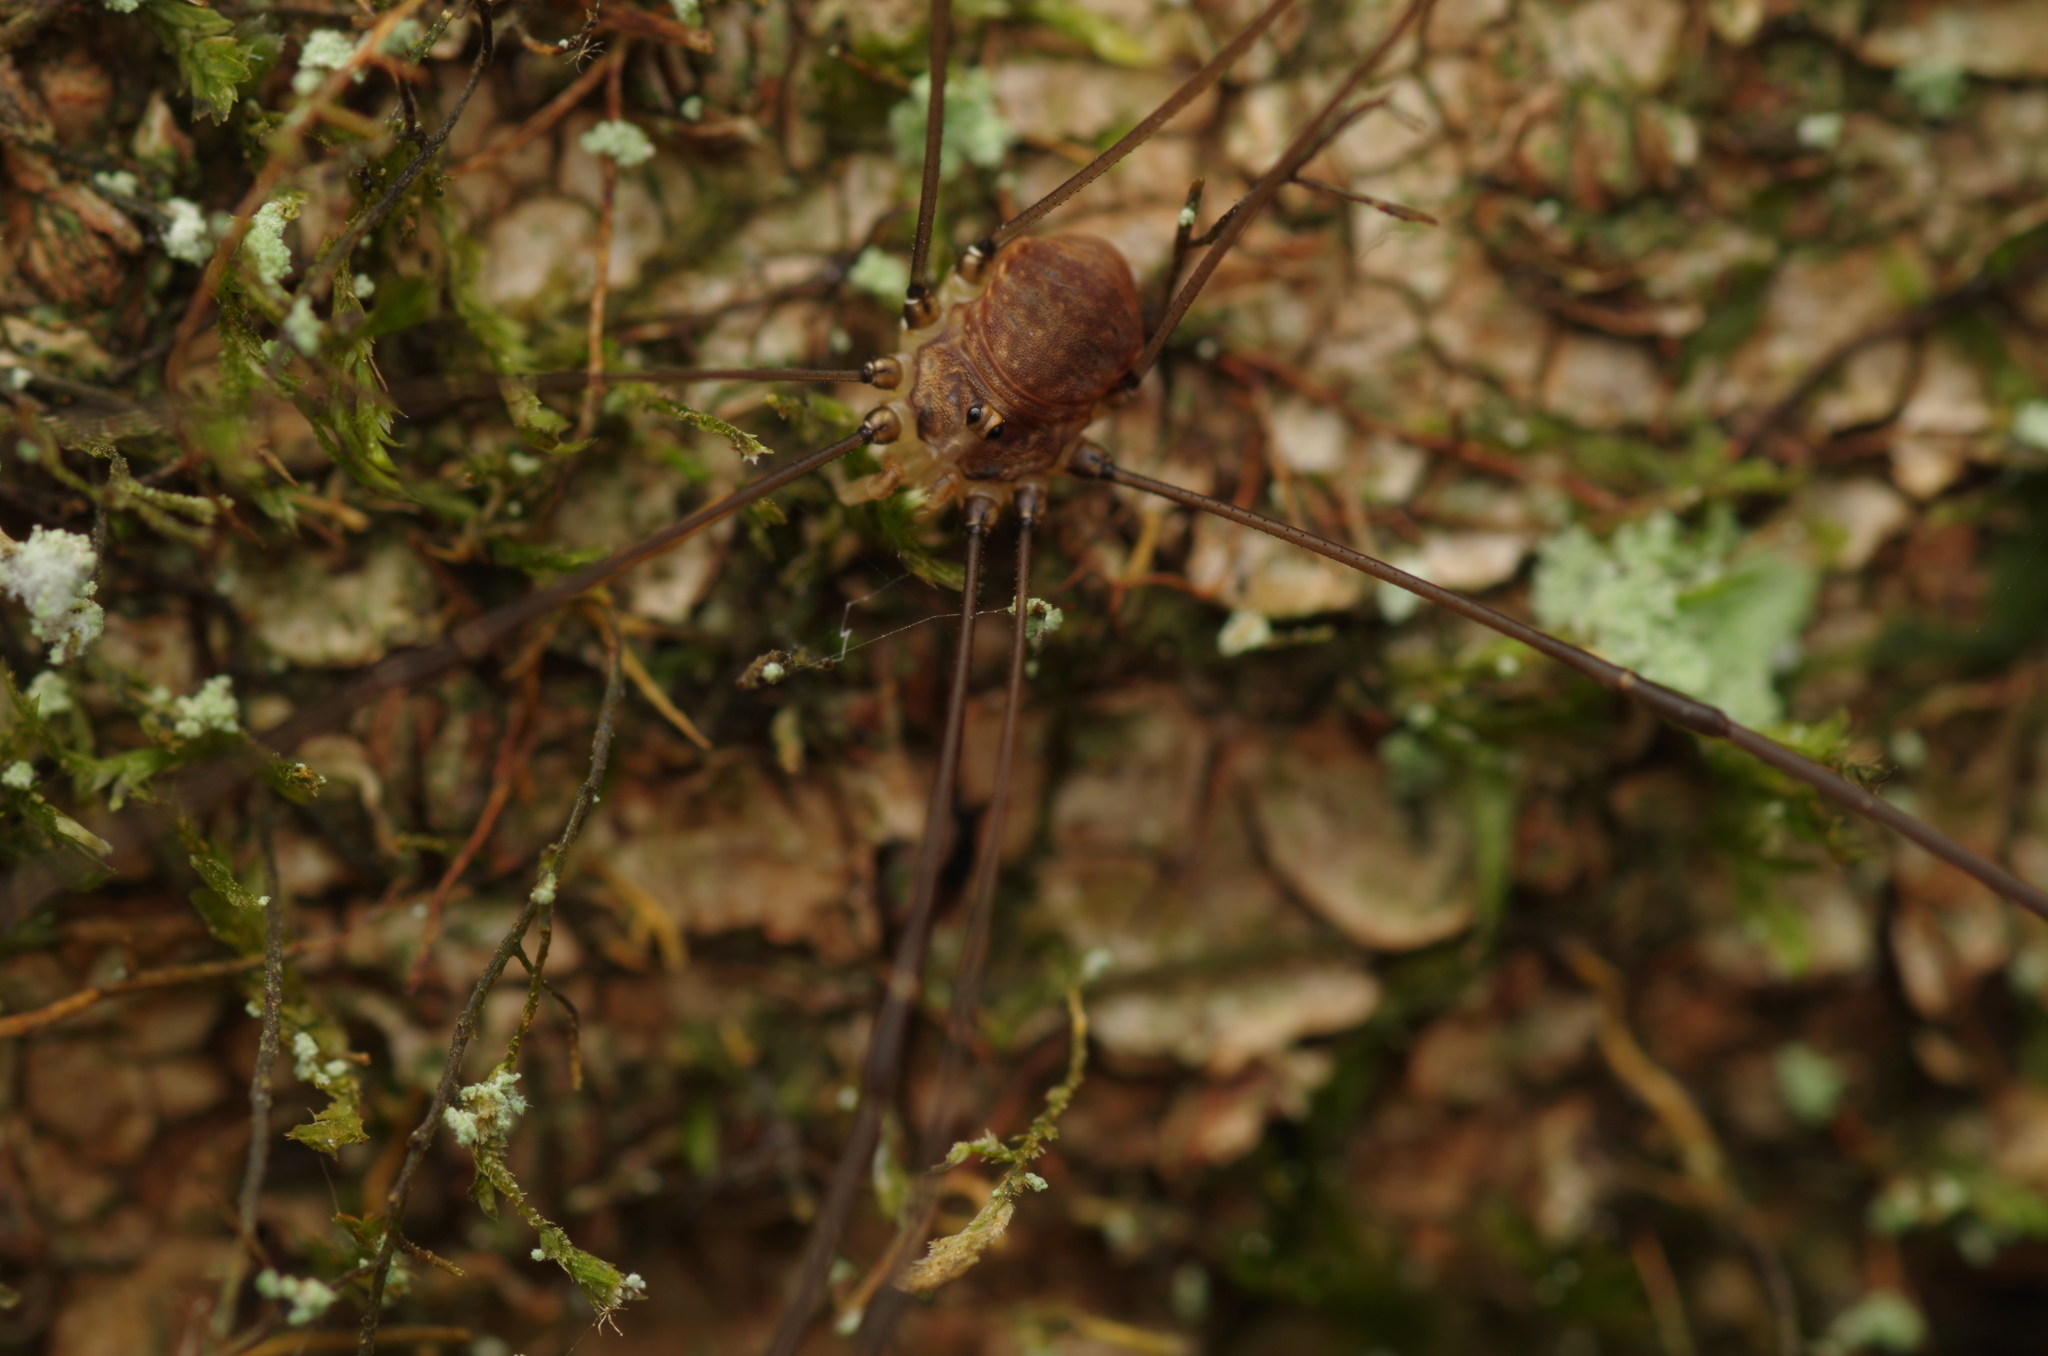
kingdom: Animalia
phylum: Arthropoda
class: Arachnida
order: Opiliones
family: Sclerosomatidae
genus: Leiobunum
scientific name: Leiobunum blackwalli
